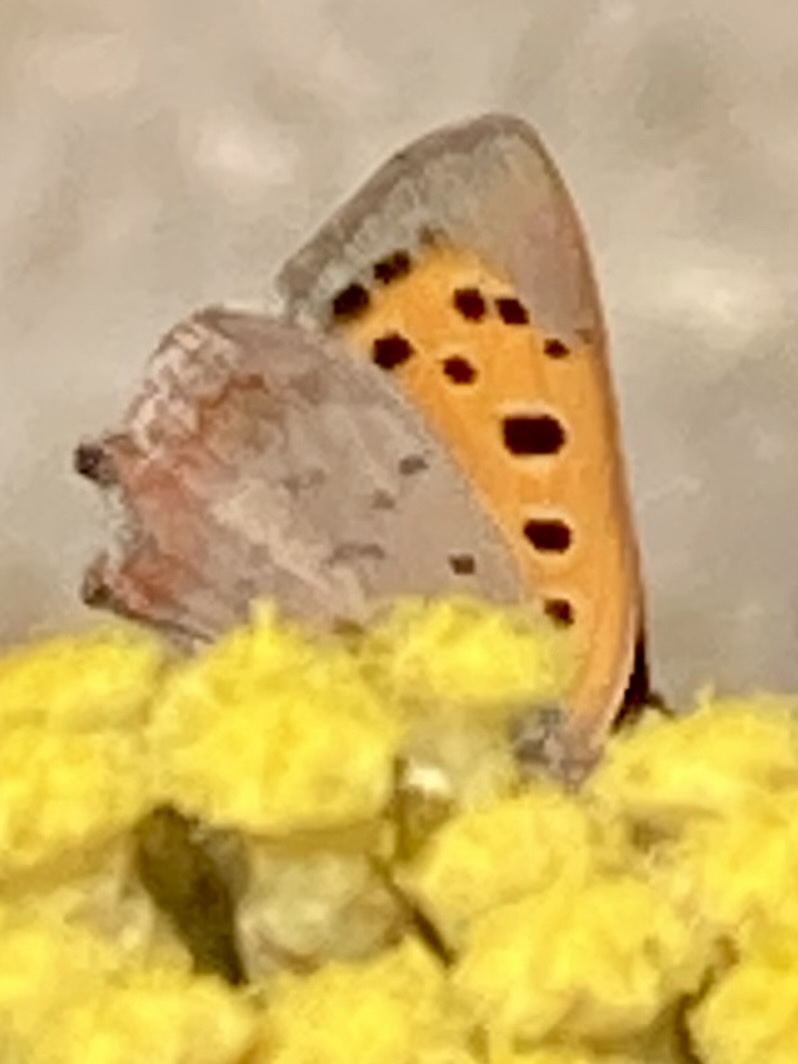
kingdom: Animalia
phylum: Arthropoda
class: Insecta
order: Lepidoptera
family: Lycaenidae
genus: Lycaena
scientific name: Lycaena phlaeas
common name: Small copper
